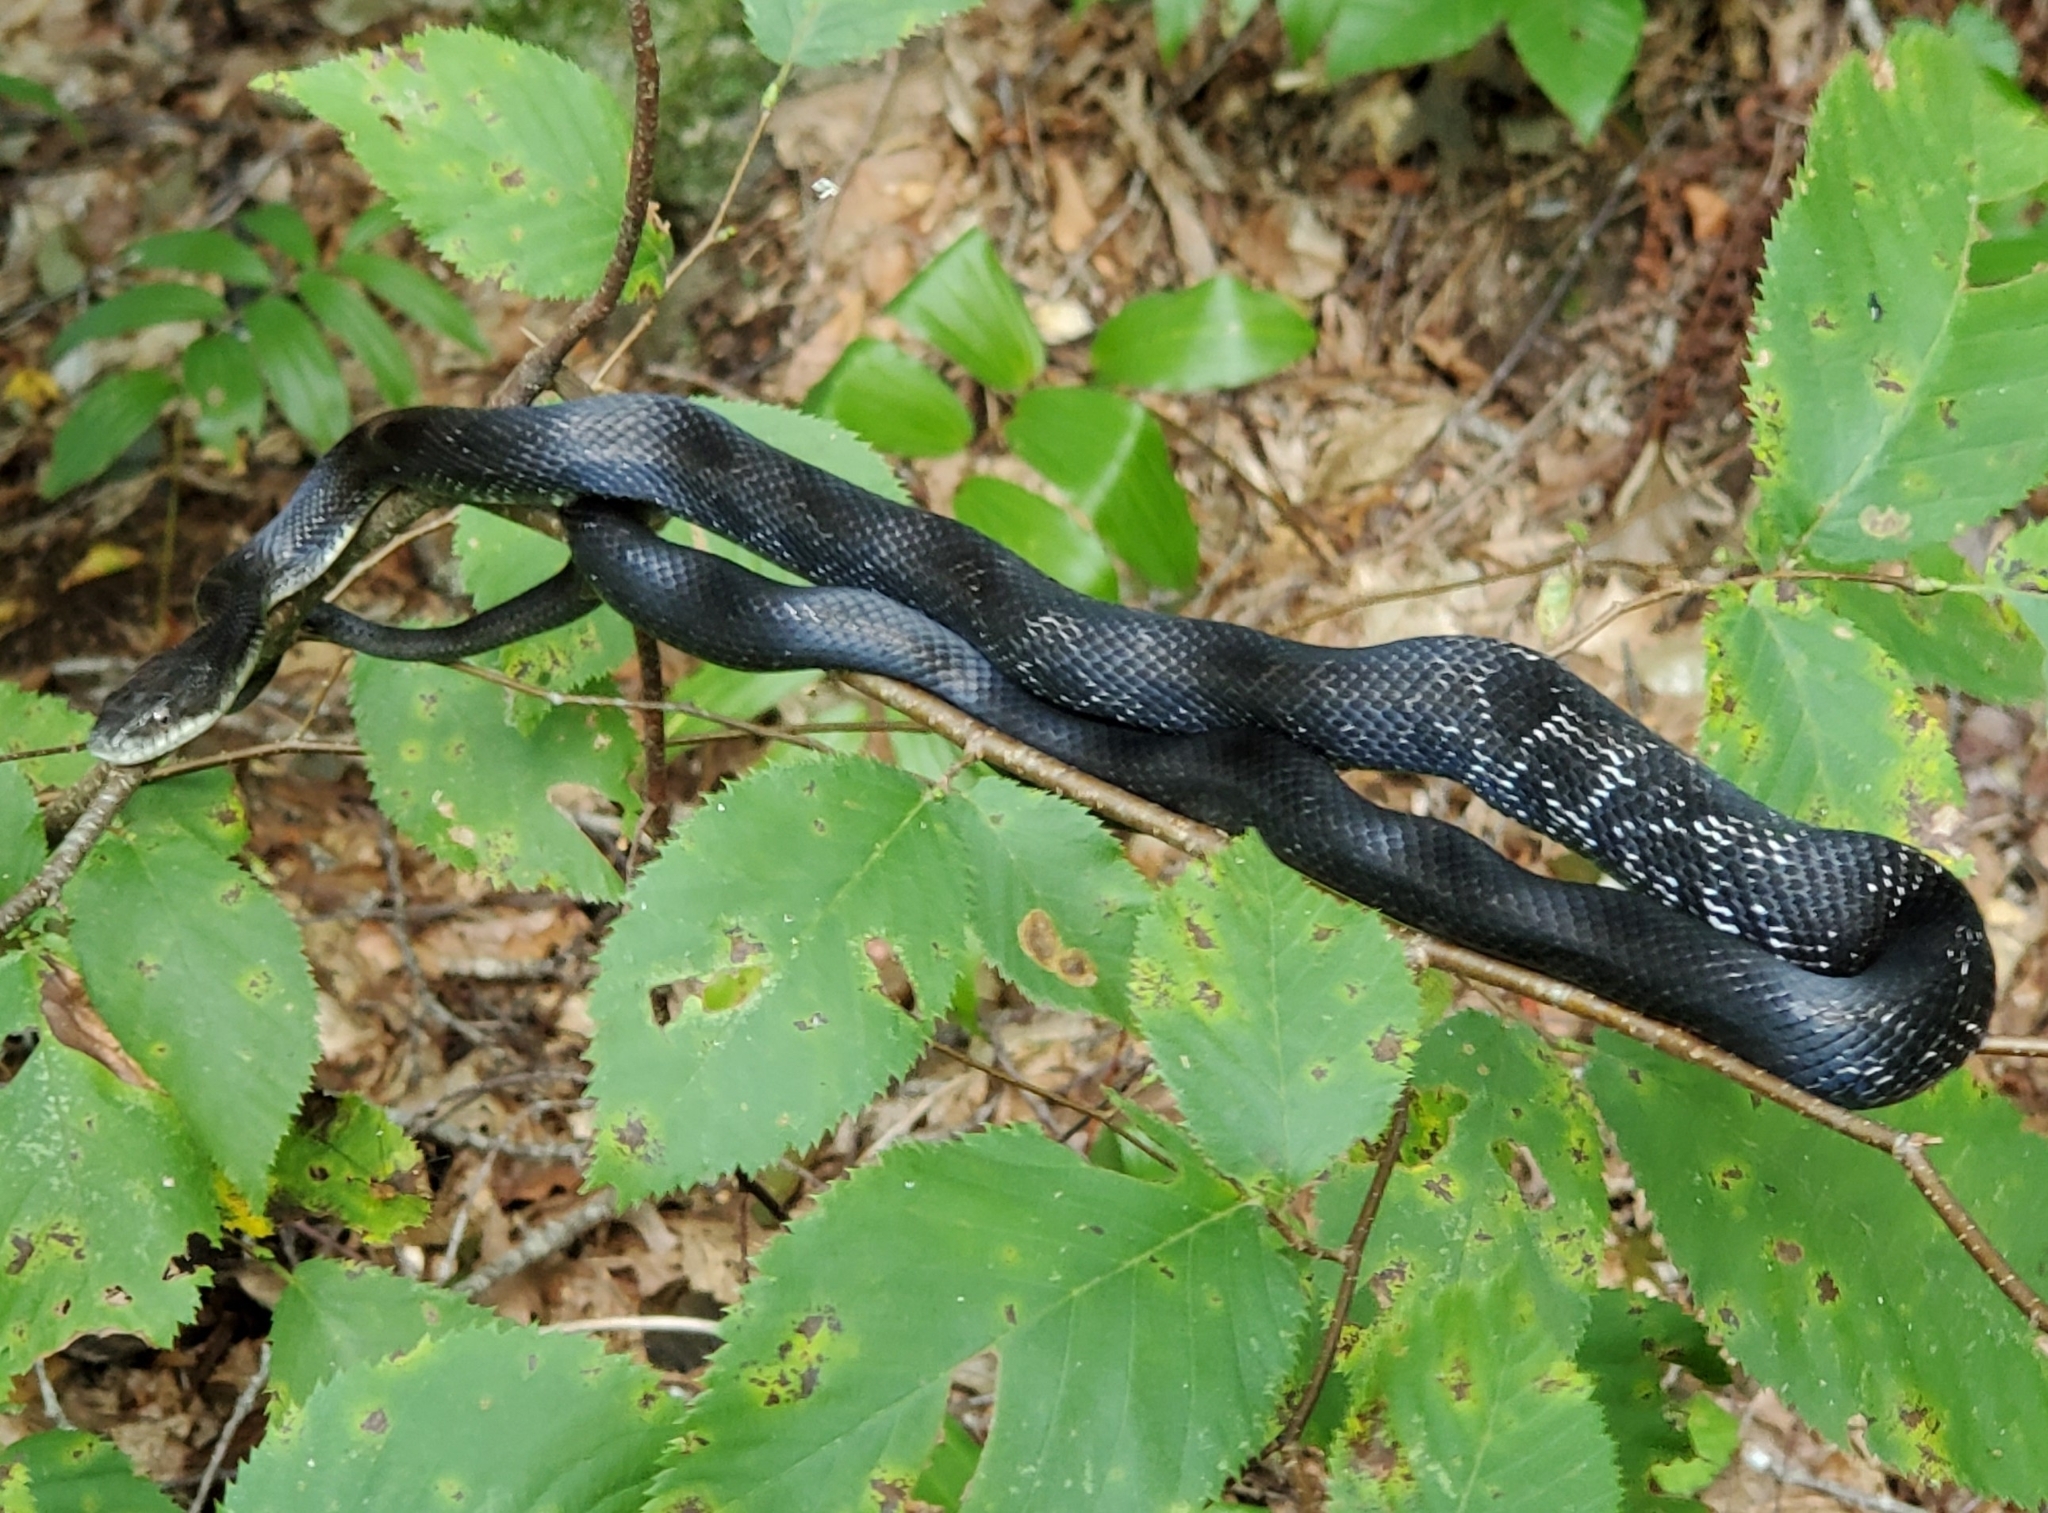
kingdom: Animalia
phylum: Chordata
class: Squamata
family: Colubridae
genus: Pantherophis
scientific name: Pantherophis alleghaniensis
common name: Eastern rat snake
